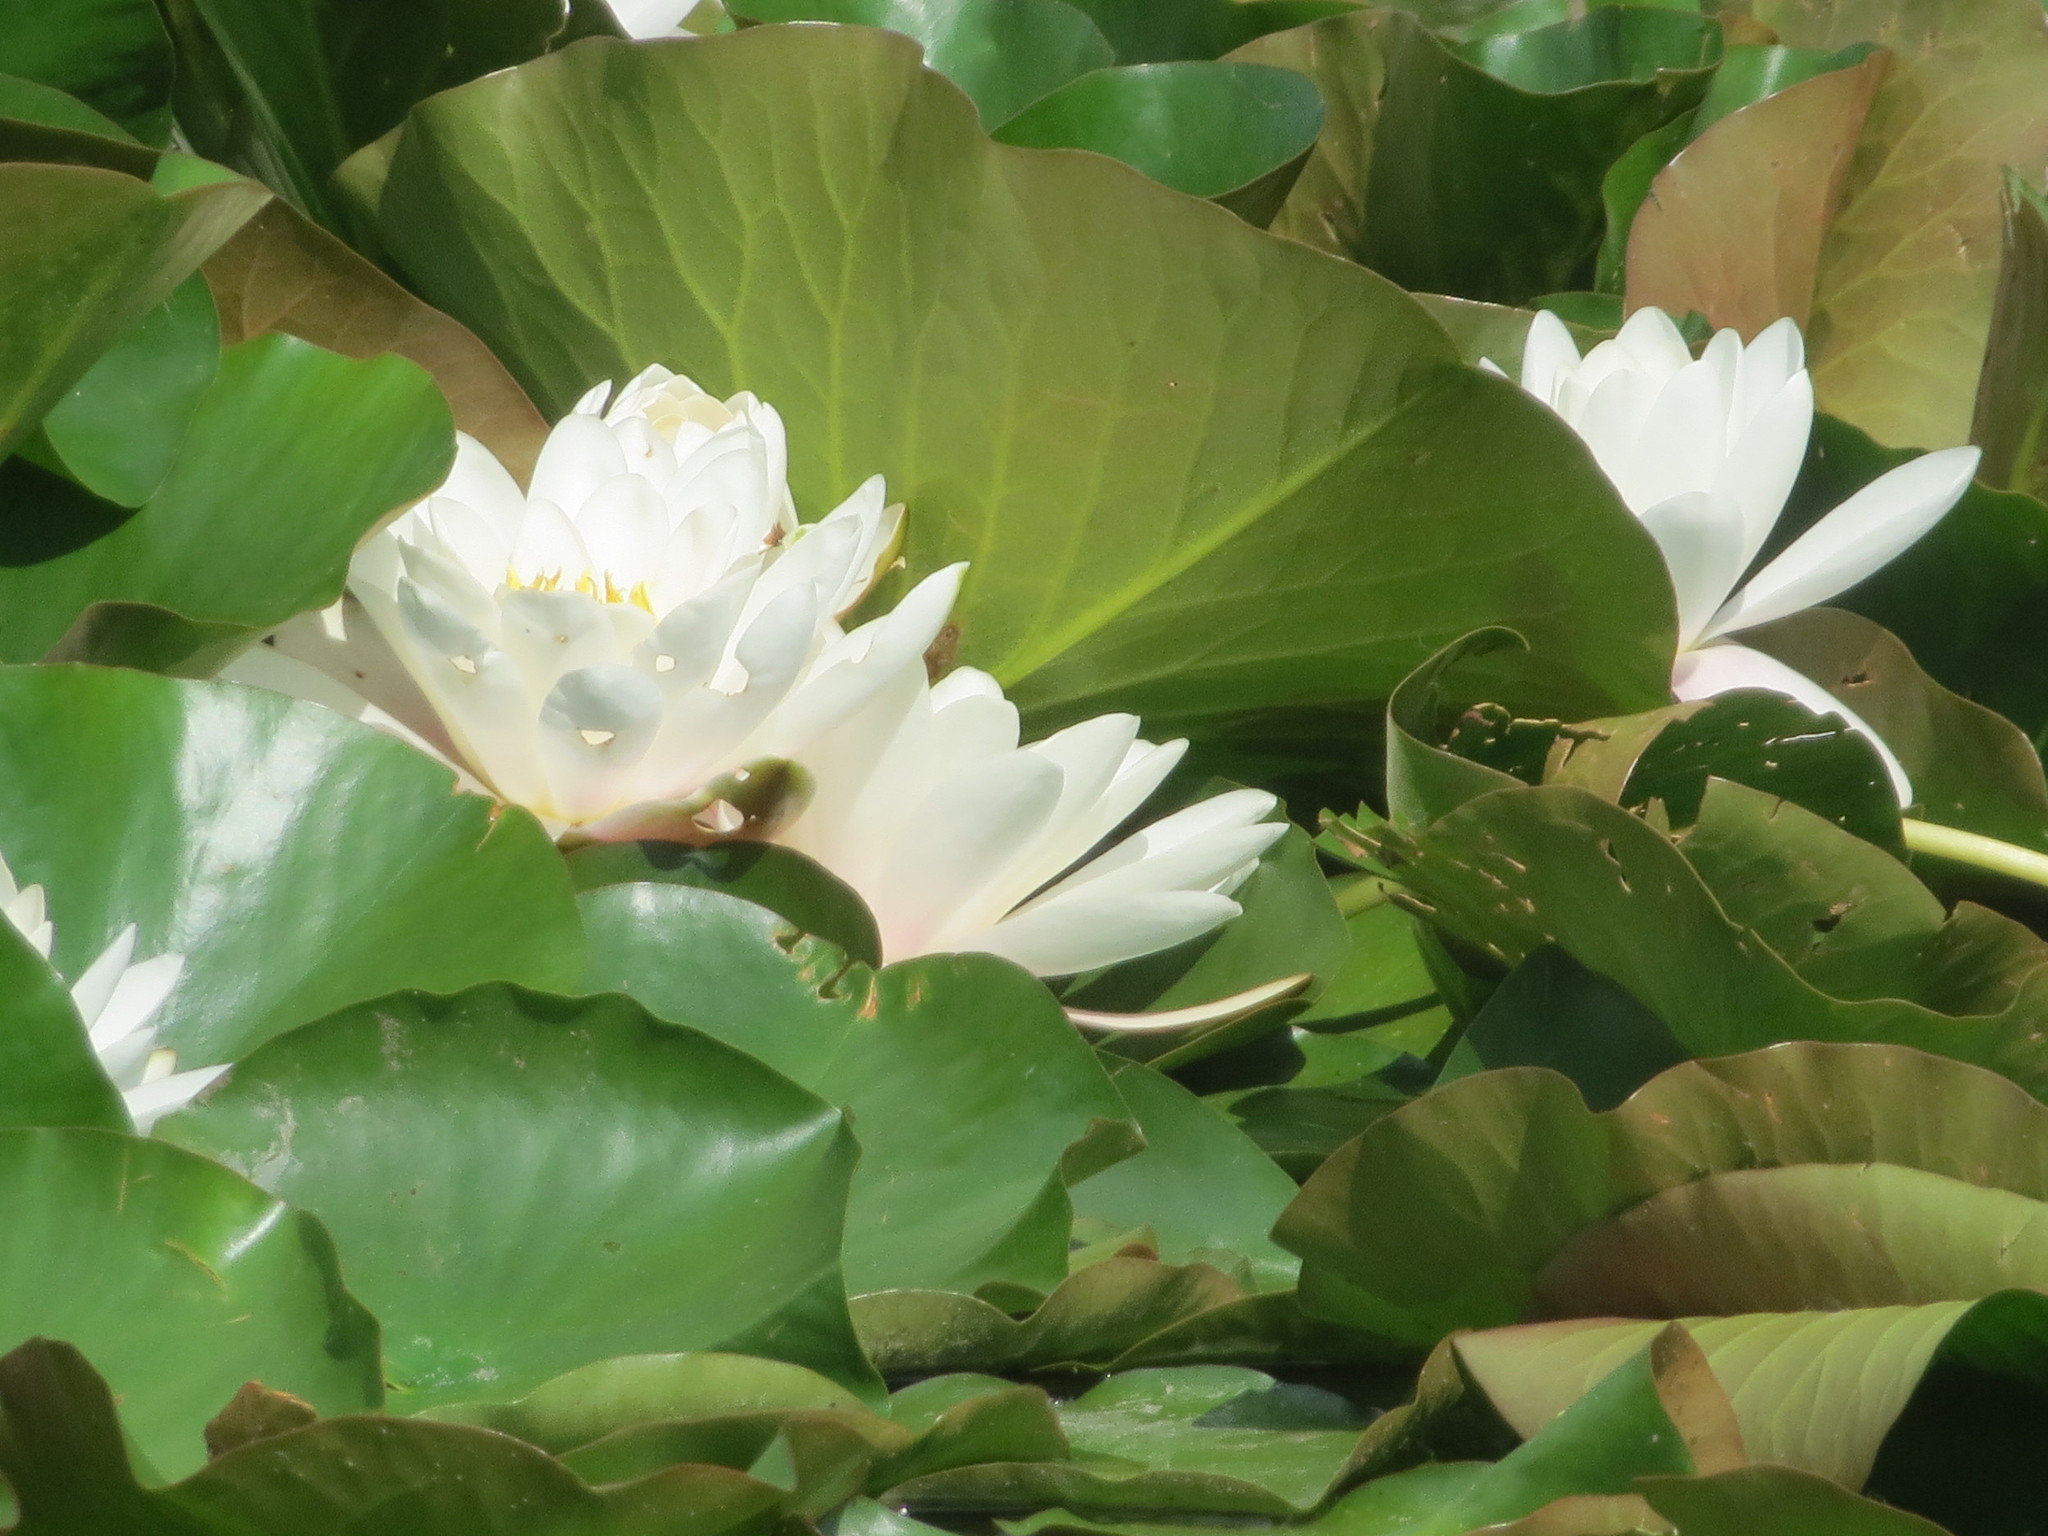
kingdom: Plantae
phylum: Tracheophyta
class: Magnoliopsida
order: Nymphaeales
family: Nymphaeaceae
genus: Nymphaea
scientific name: Nymphaea alba
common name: White water-lily
